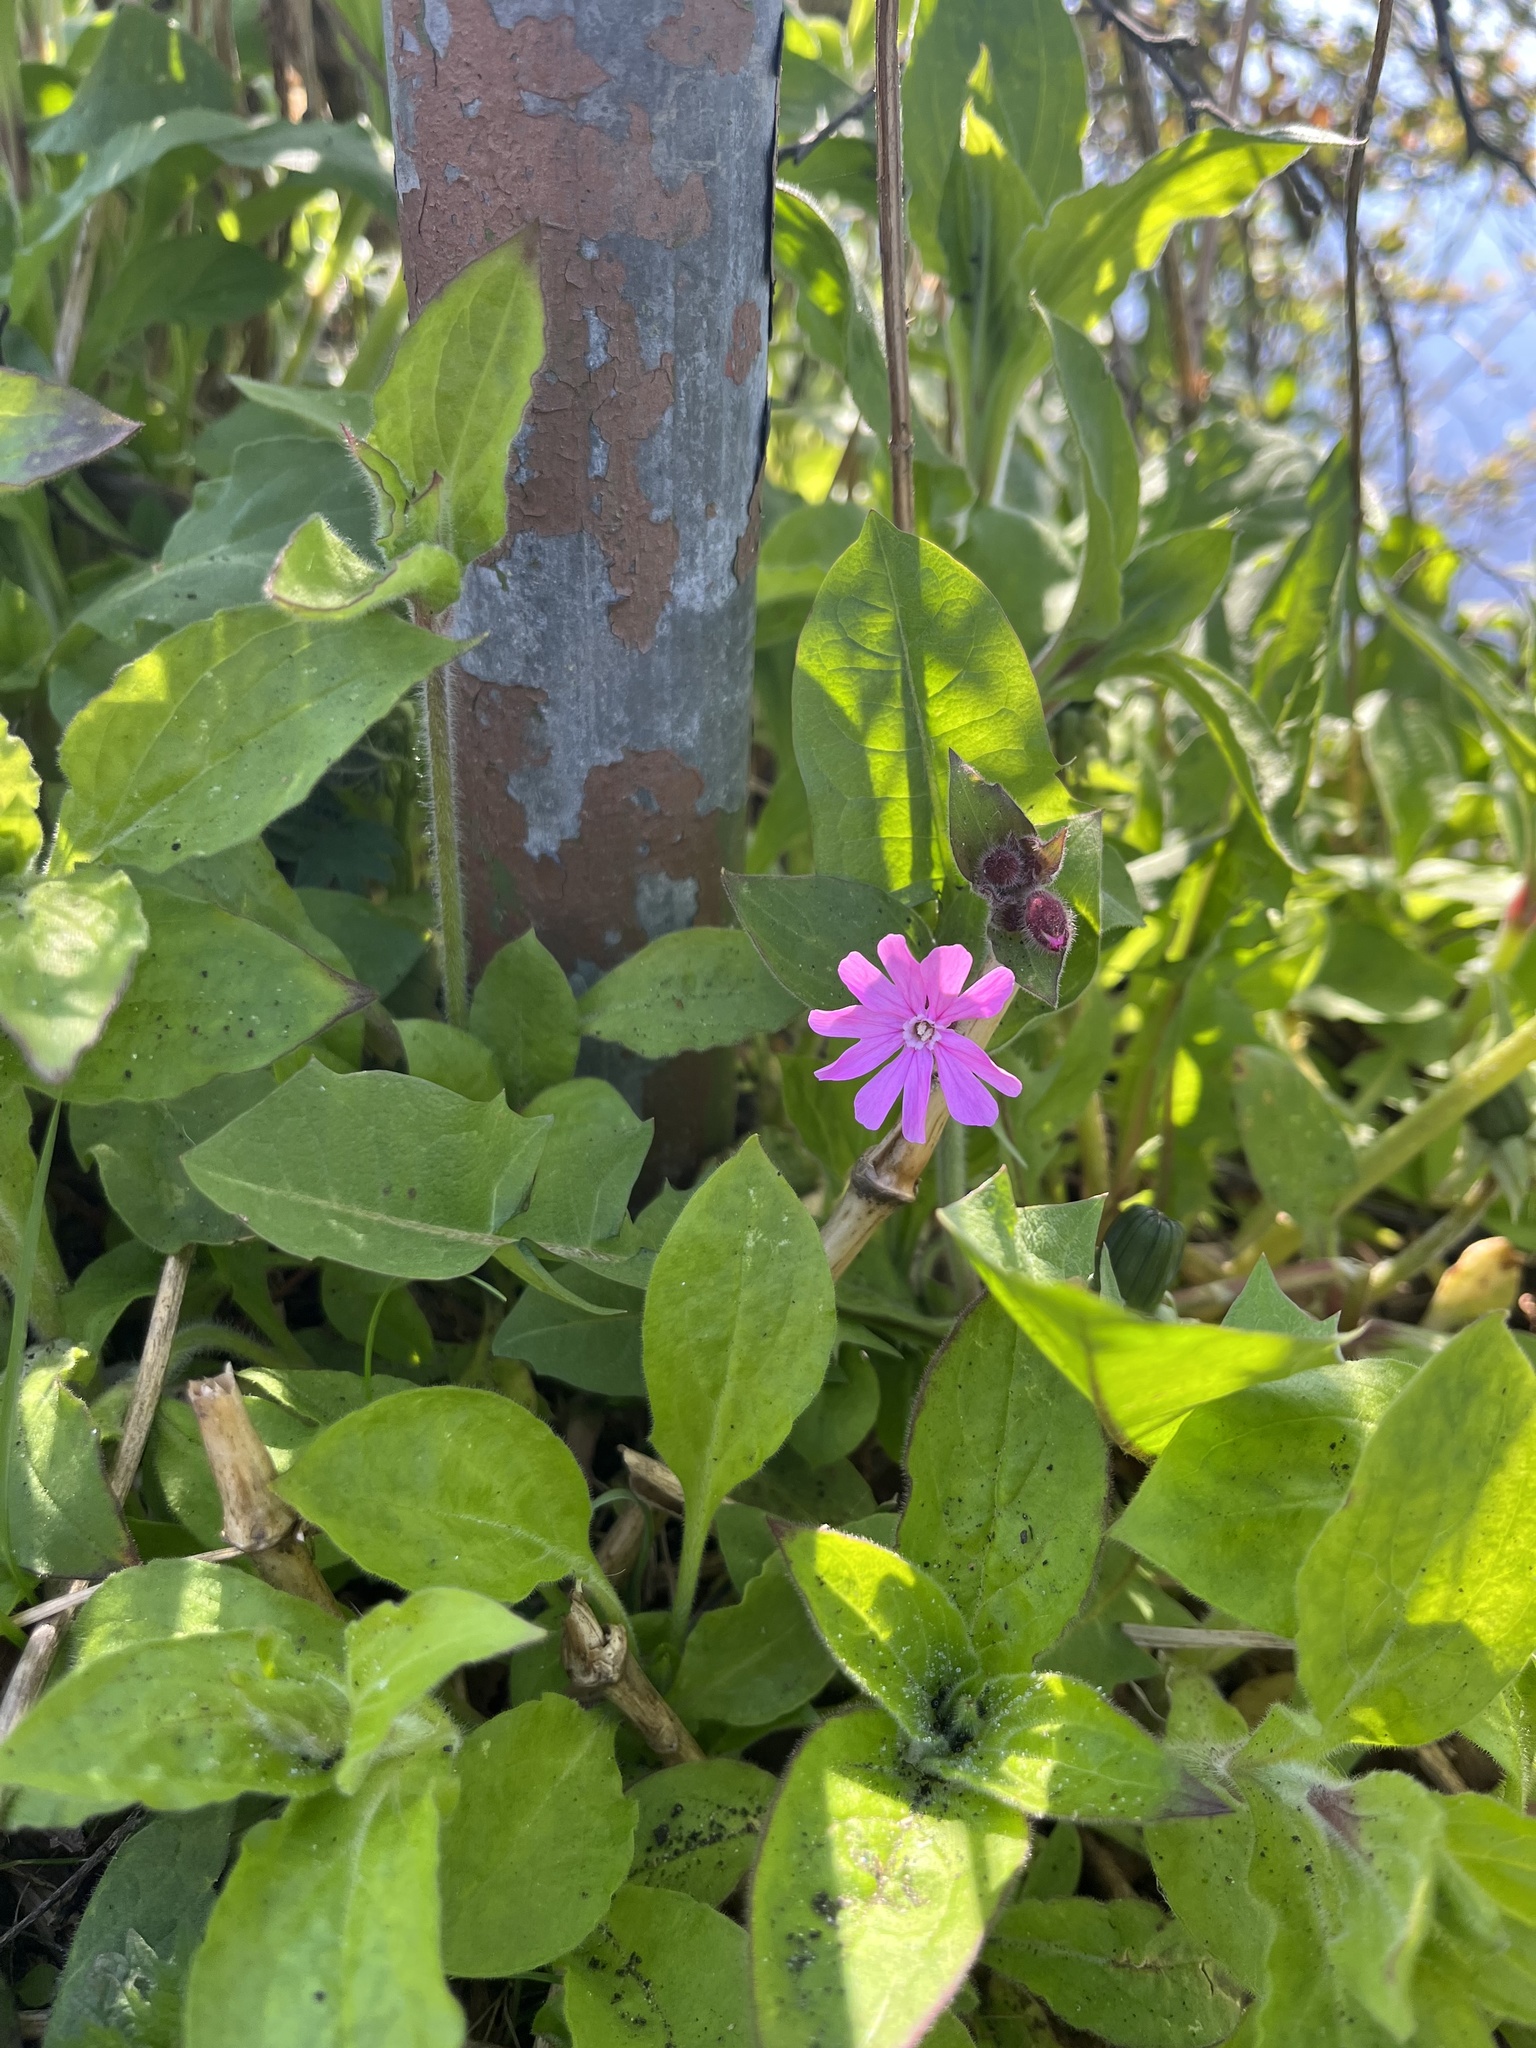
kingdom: Plantae
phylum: Tracheophyta
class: Magnoliopsida
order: Caryophyllales
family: Caryophyllaceae
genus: Silene
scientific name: Silene dioica
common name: Red campion
